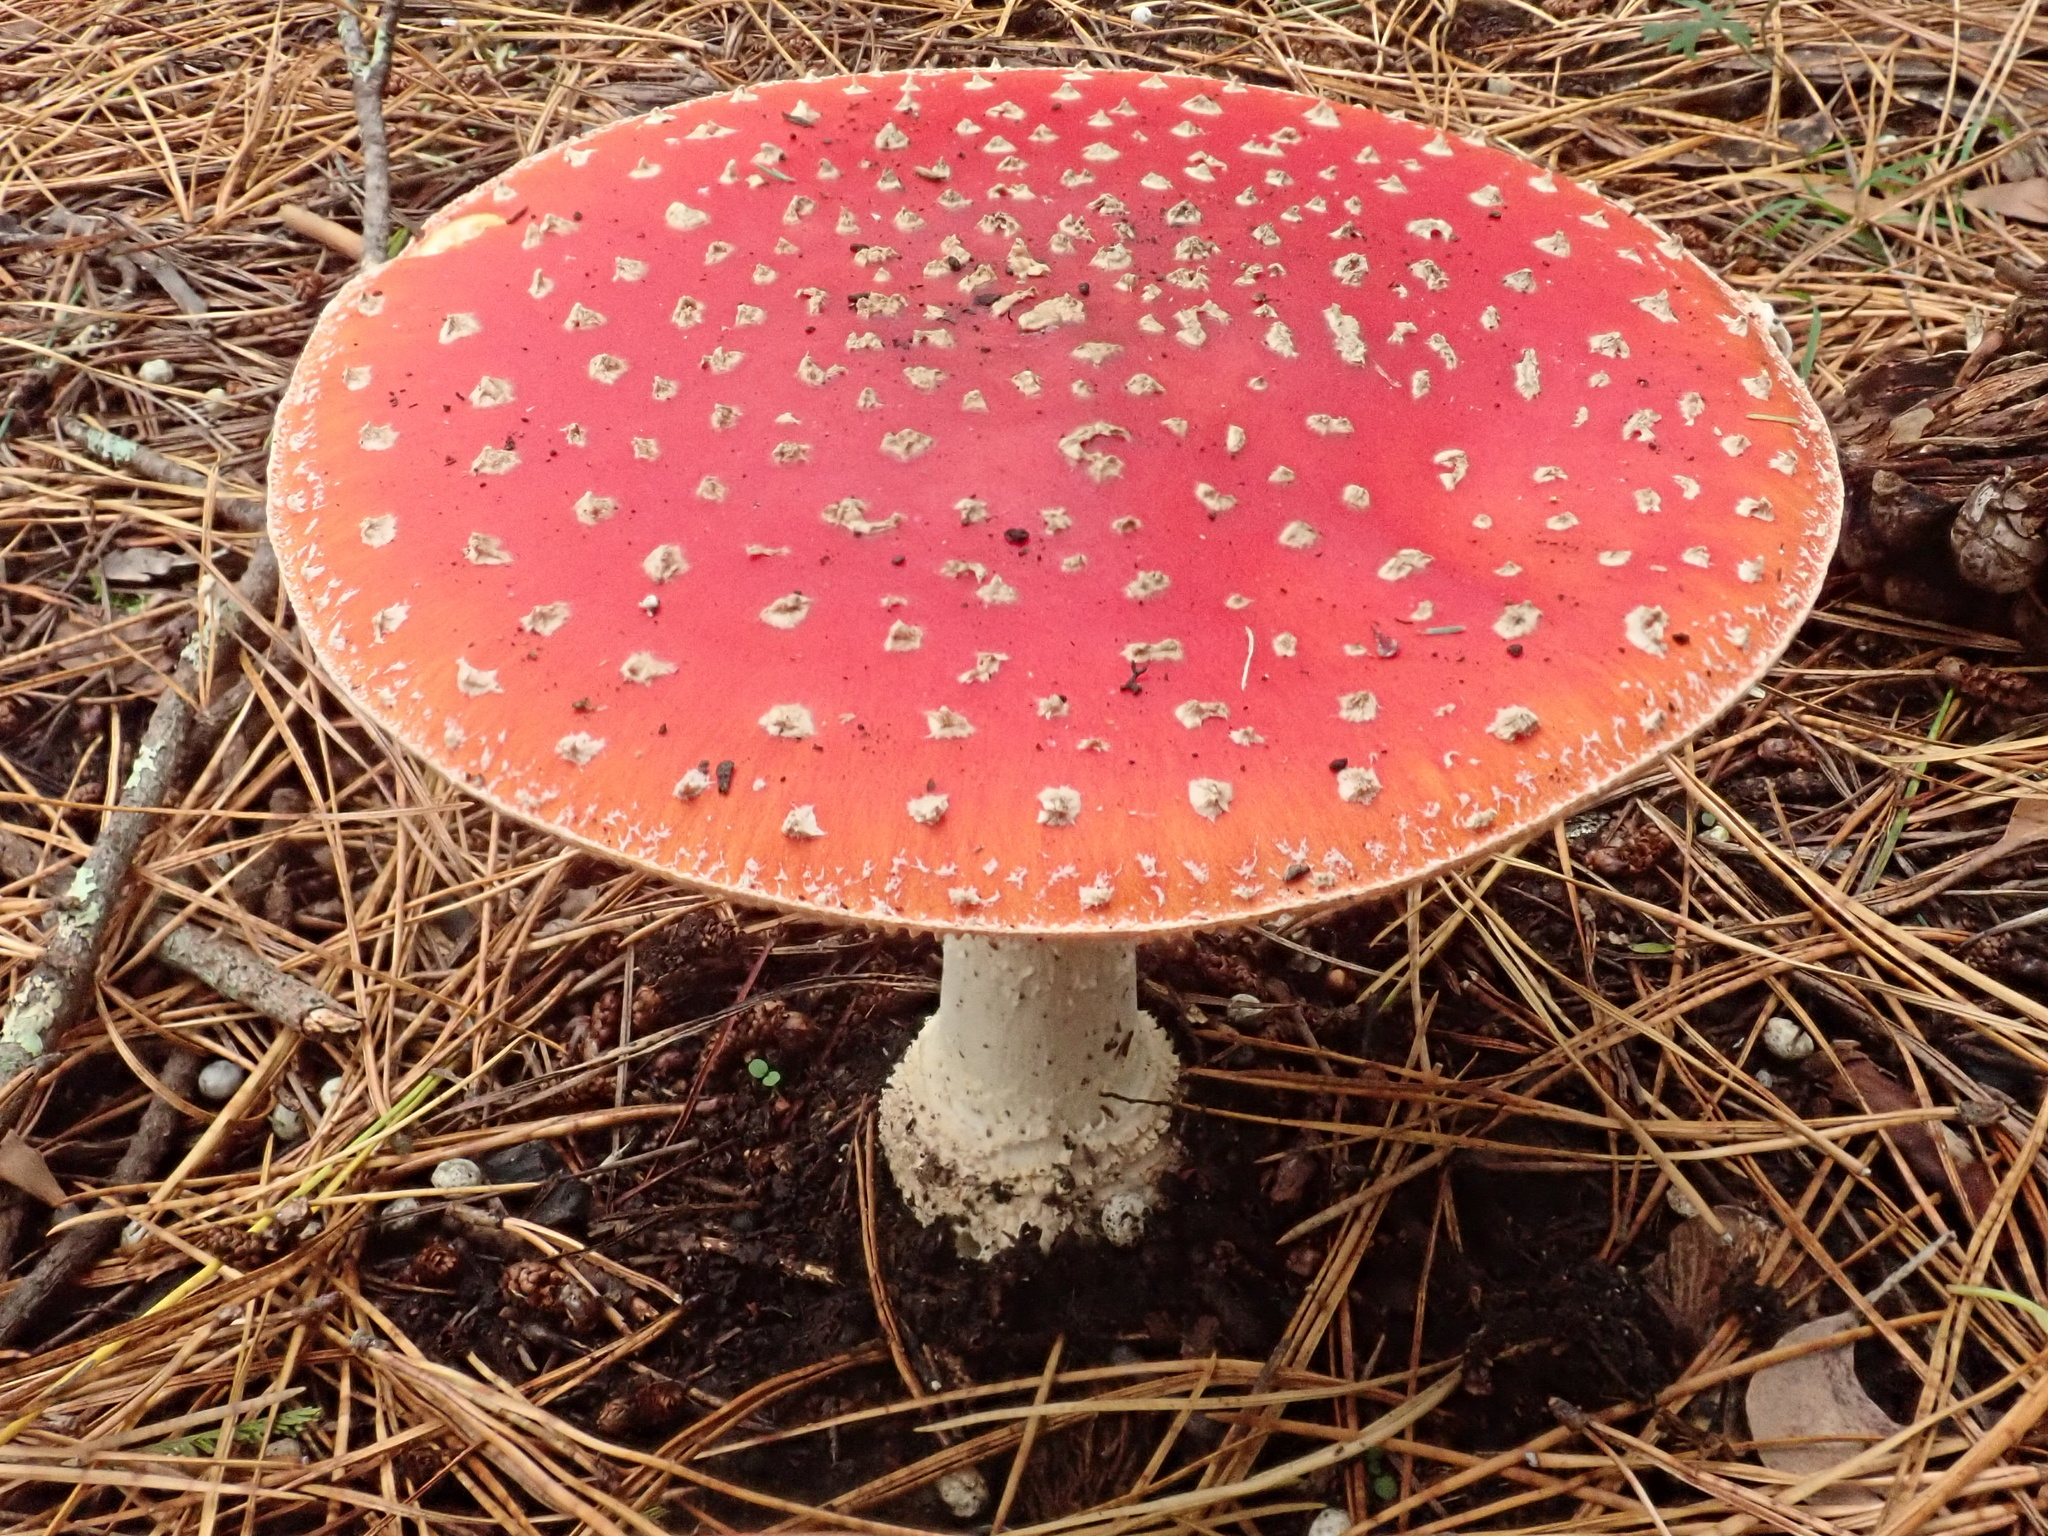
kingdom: Fungi
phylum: Basidiomycota
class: Agaricomycetes
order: Agaricales
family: Amanitaceae
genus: Amanita
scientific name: Amanita muscaria
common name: Fly agaric
